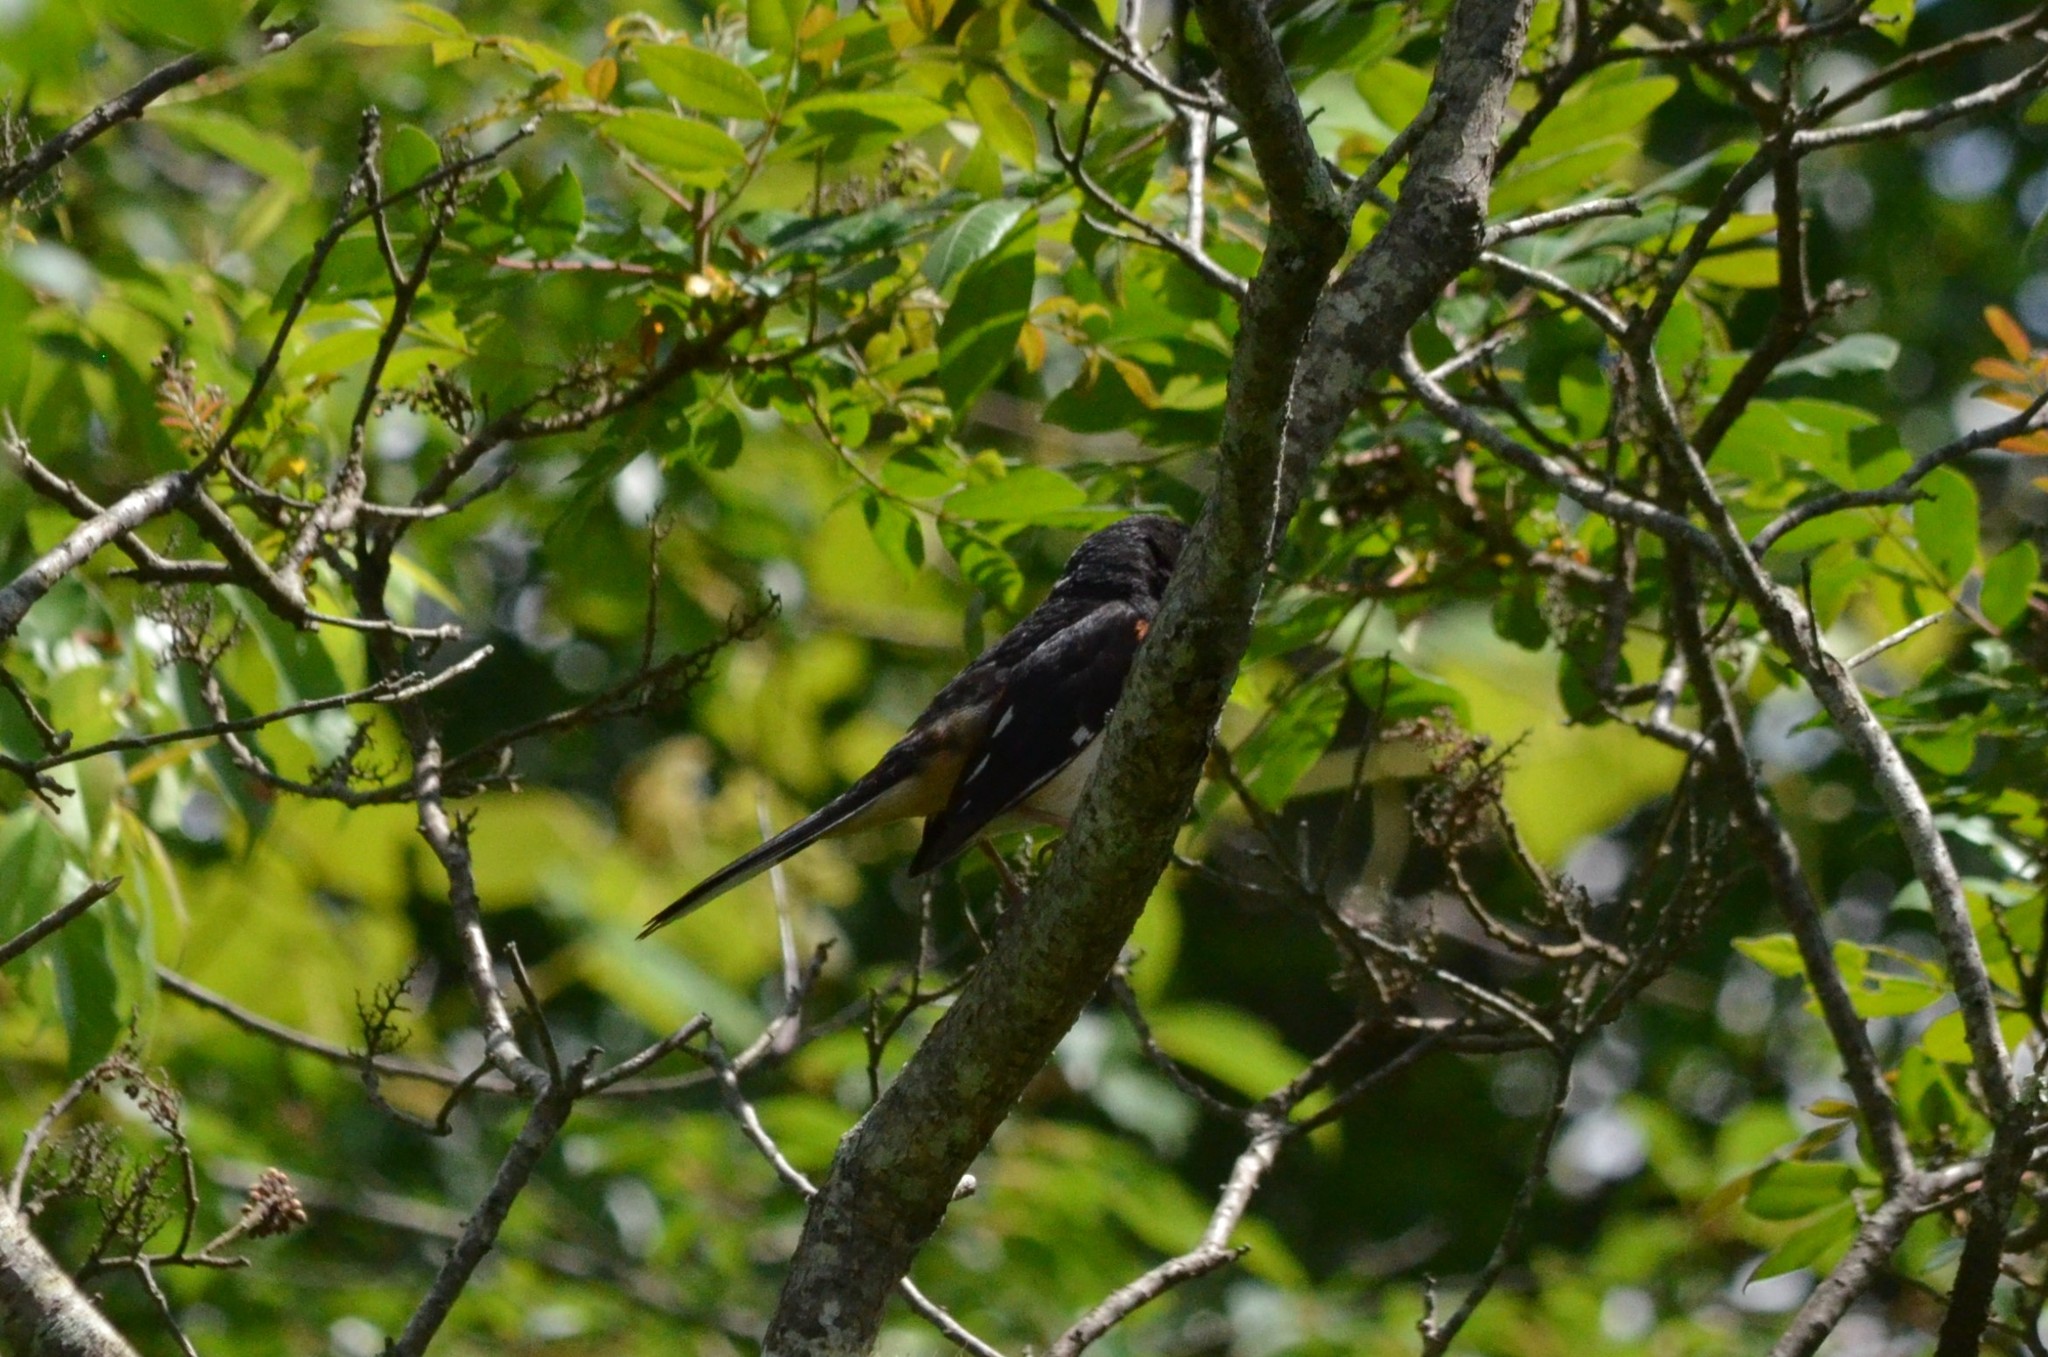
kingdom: Animalia
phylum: Chordata
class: Aves
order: Passeriformes
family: Passerellidae
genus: Pipilo
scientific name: Pipilo erythrophthalmus
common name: Eastern towhee
